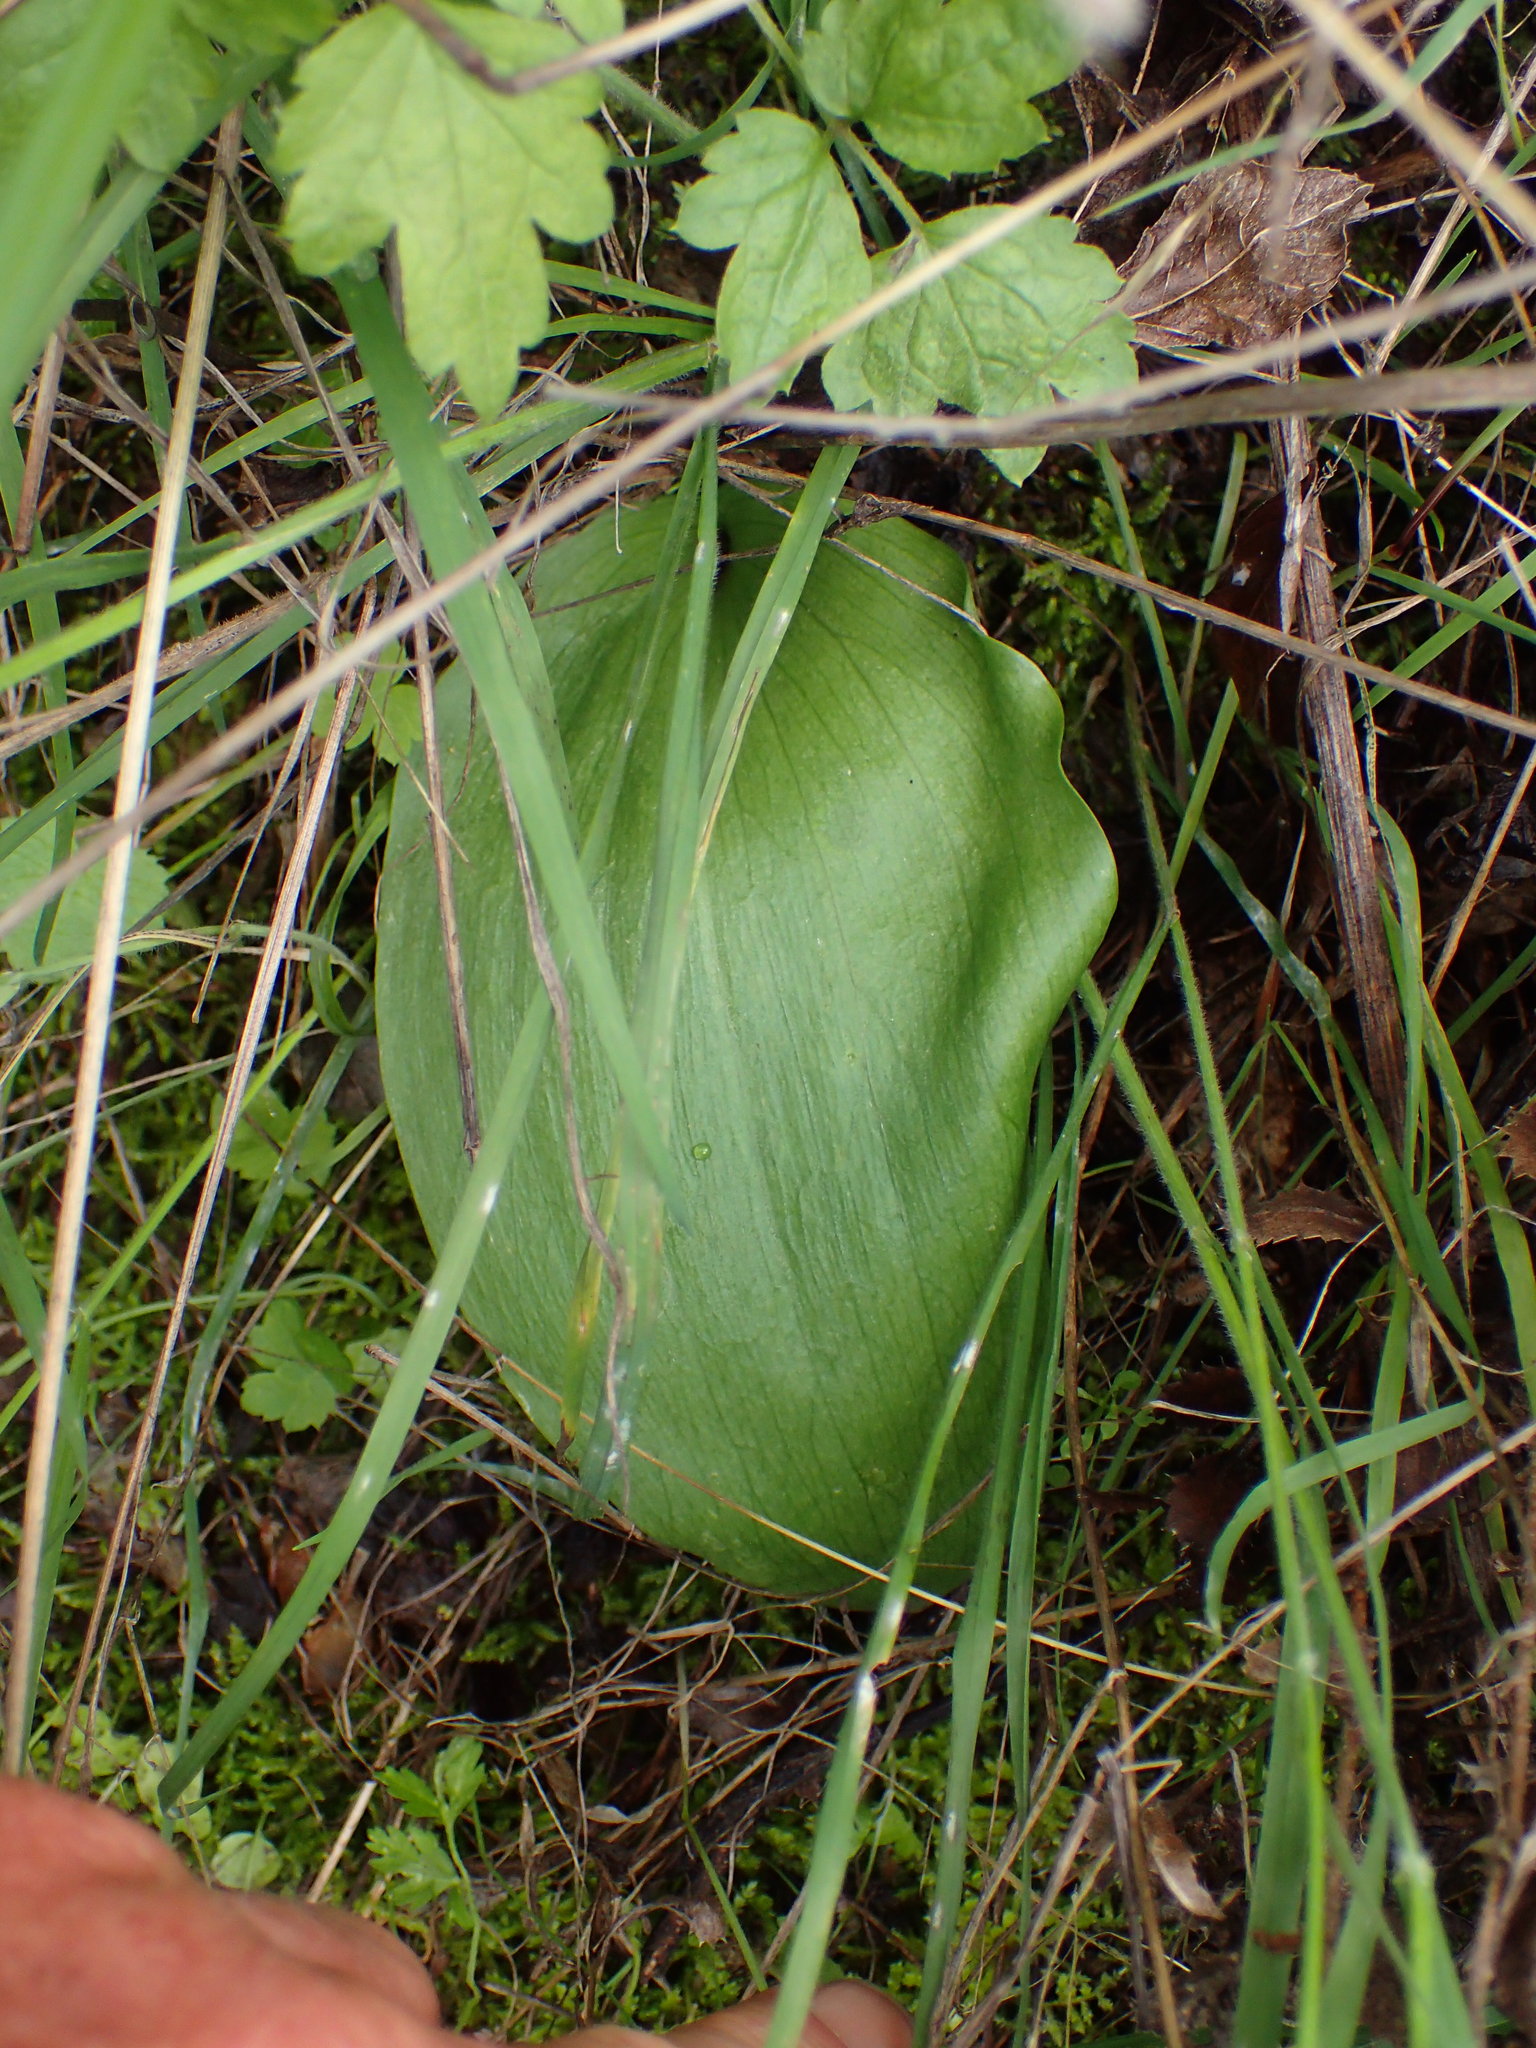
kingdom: Plantae
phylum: Tracheophyta
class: Liliopsida
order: Liliales
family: Liliaceae
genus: Fritillaria
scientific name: Fritillaria ojaiensis
